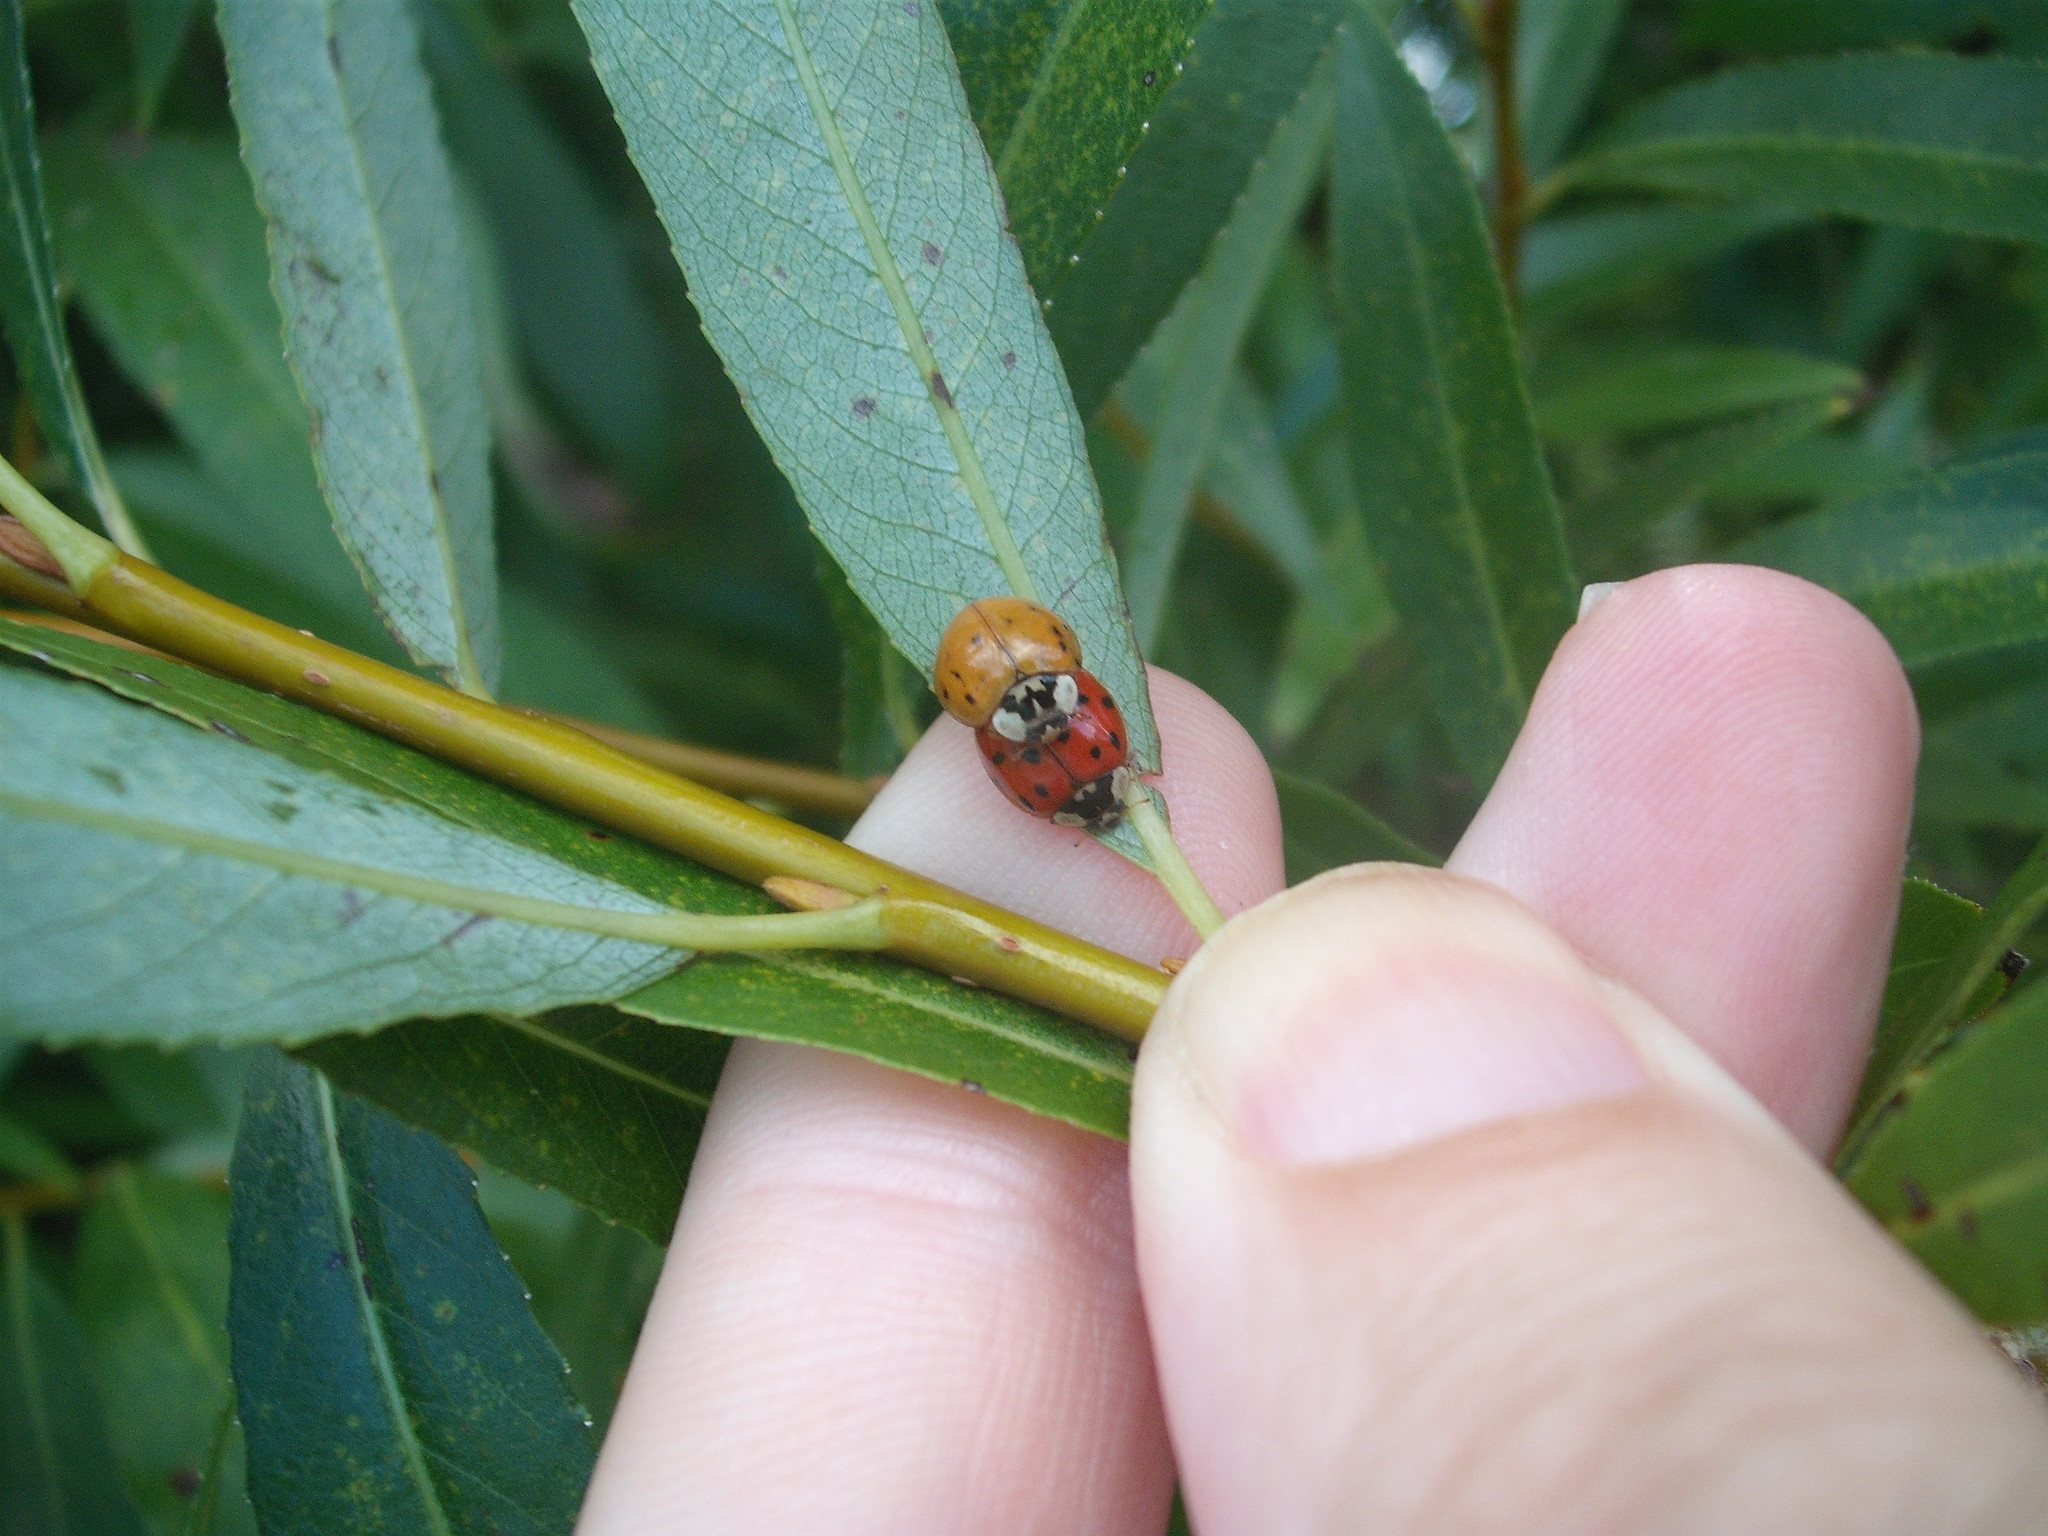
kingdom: Animalia
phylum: Arthropoda
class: Insecta
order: Coleoptera
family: Coccinellidae
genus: Harmonia
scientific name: Harmonia axyridis
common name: Harlequin ladybird
